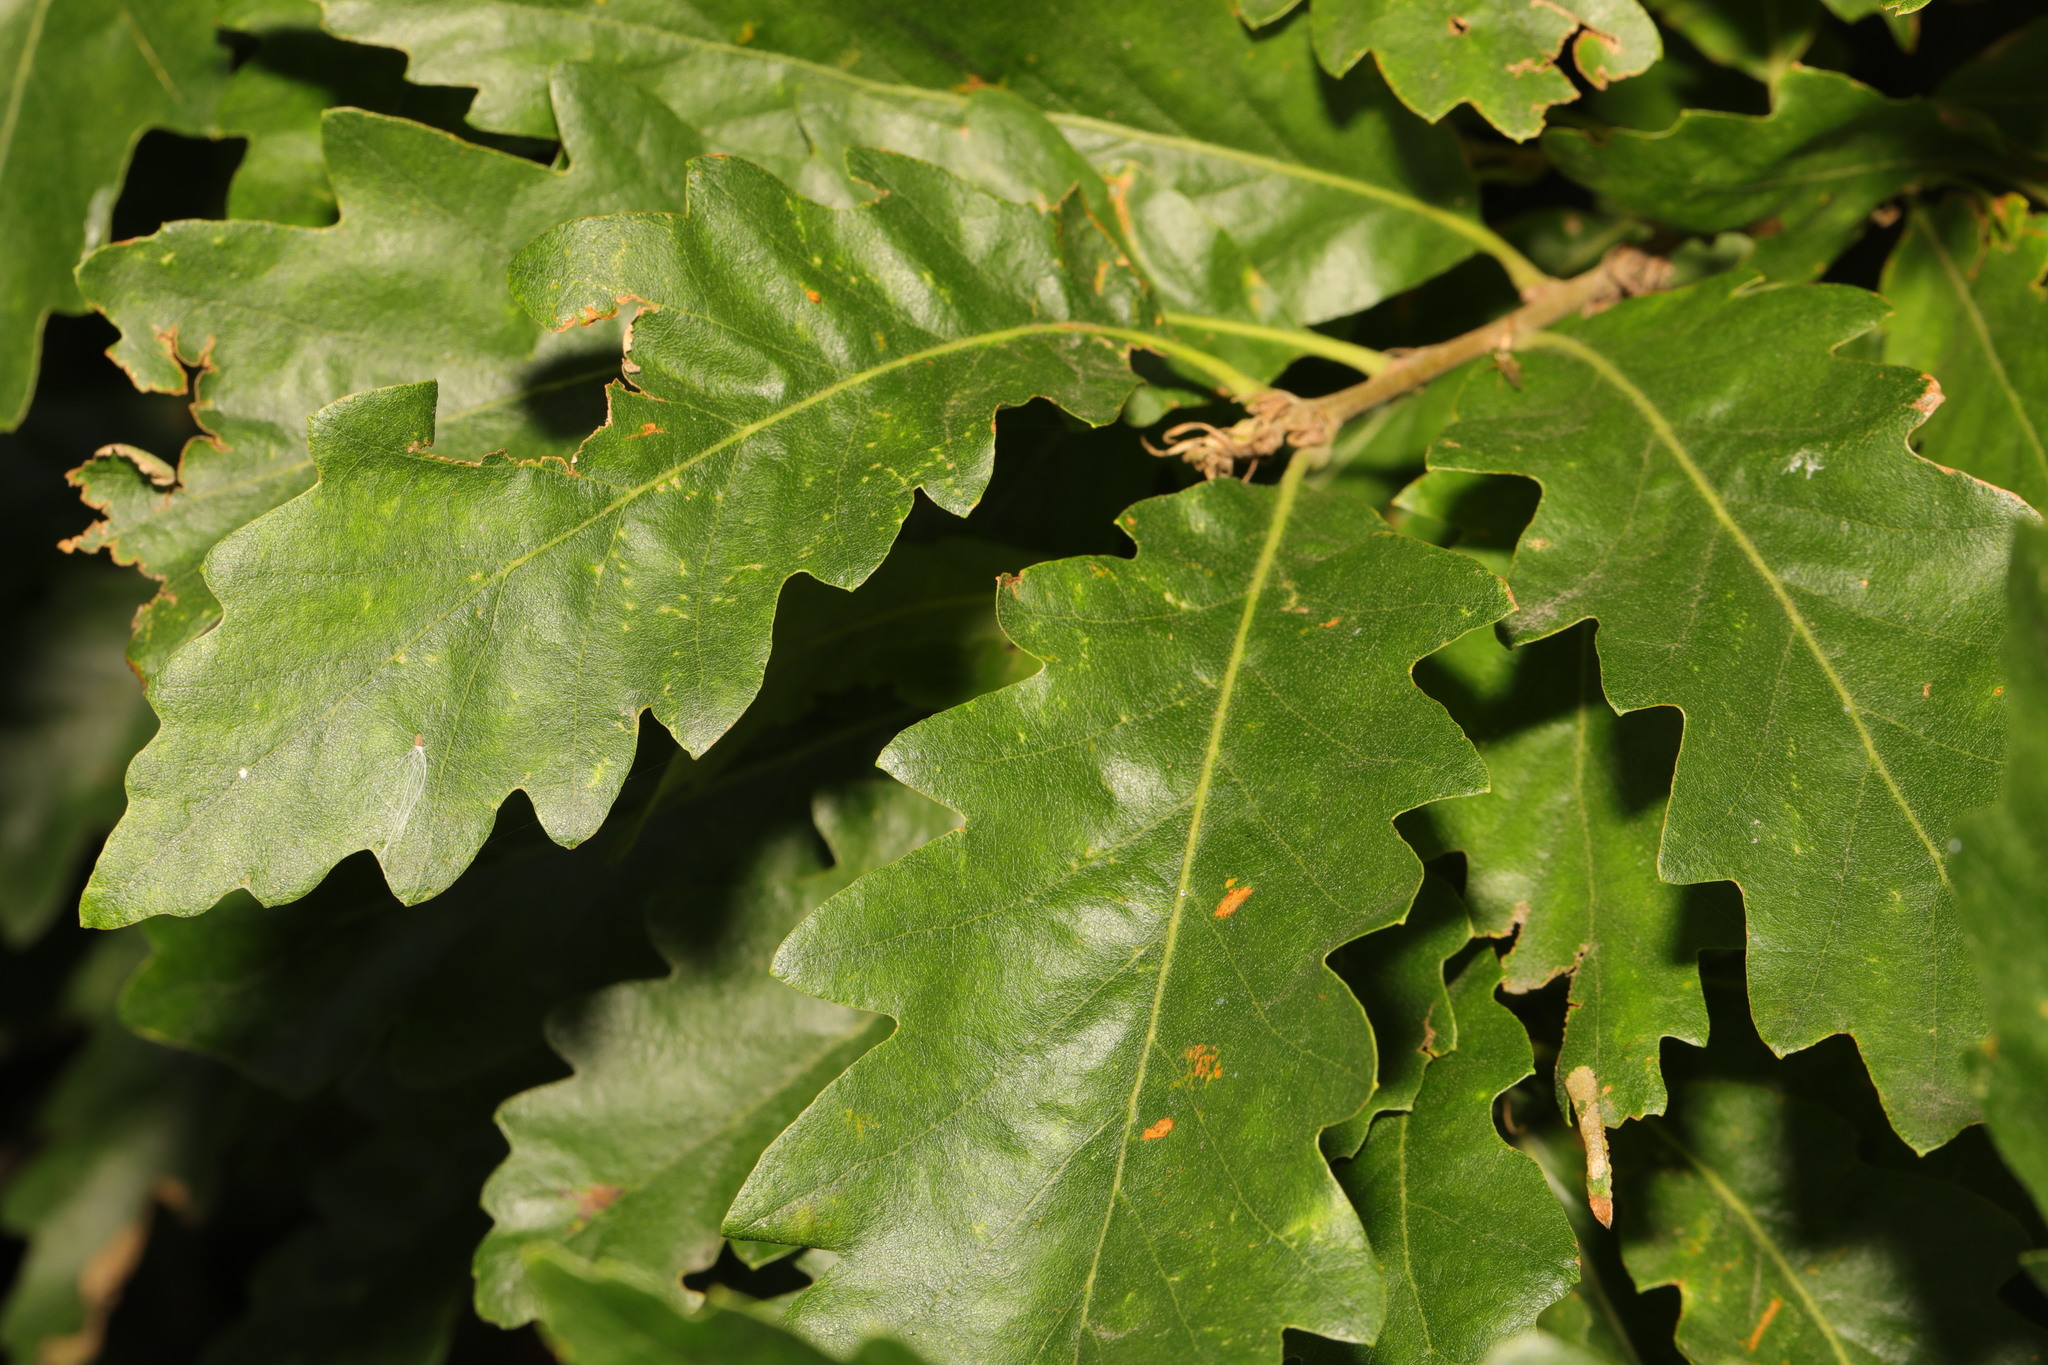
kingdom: Plantae
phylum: Tracheophyta
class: Magnoliopsida
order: Fagales
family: Fagaceae
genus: Quercus
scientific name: Quercus cerris
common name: Turkey oak
